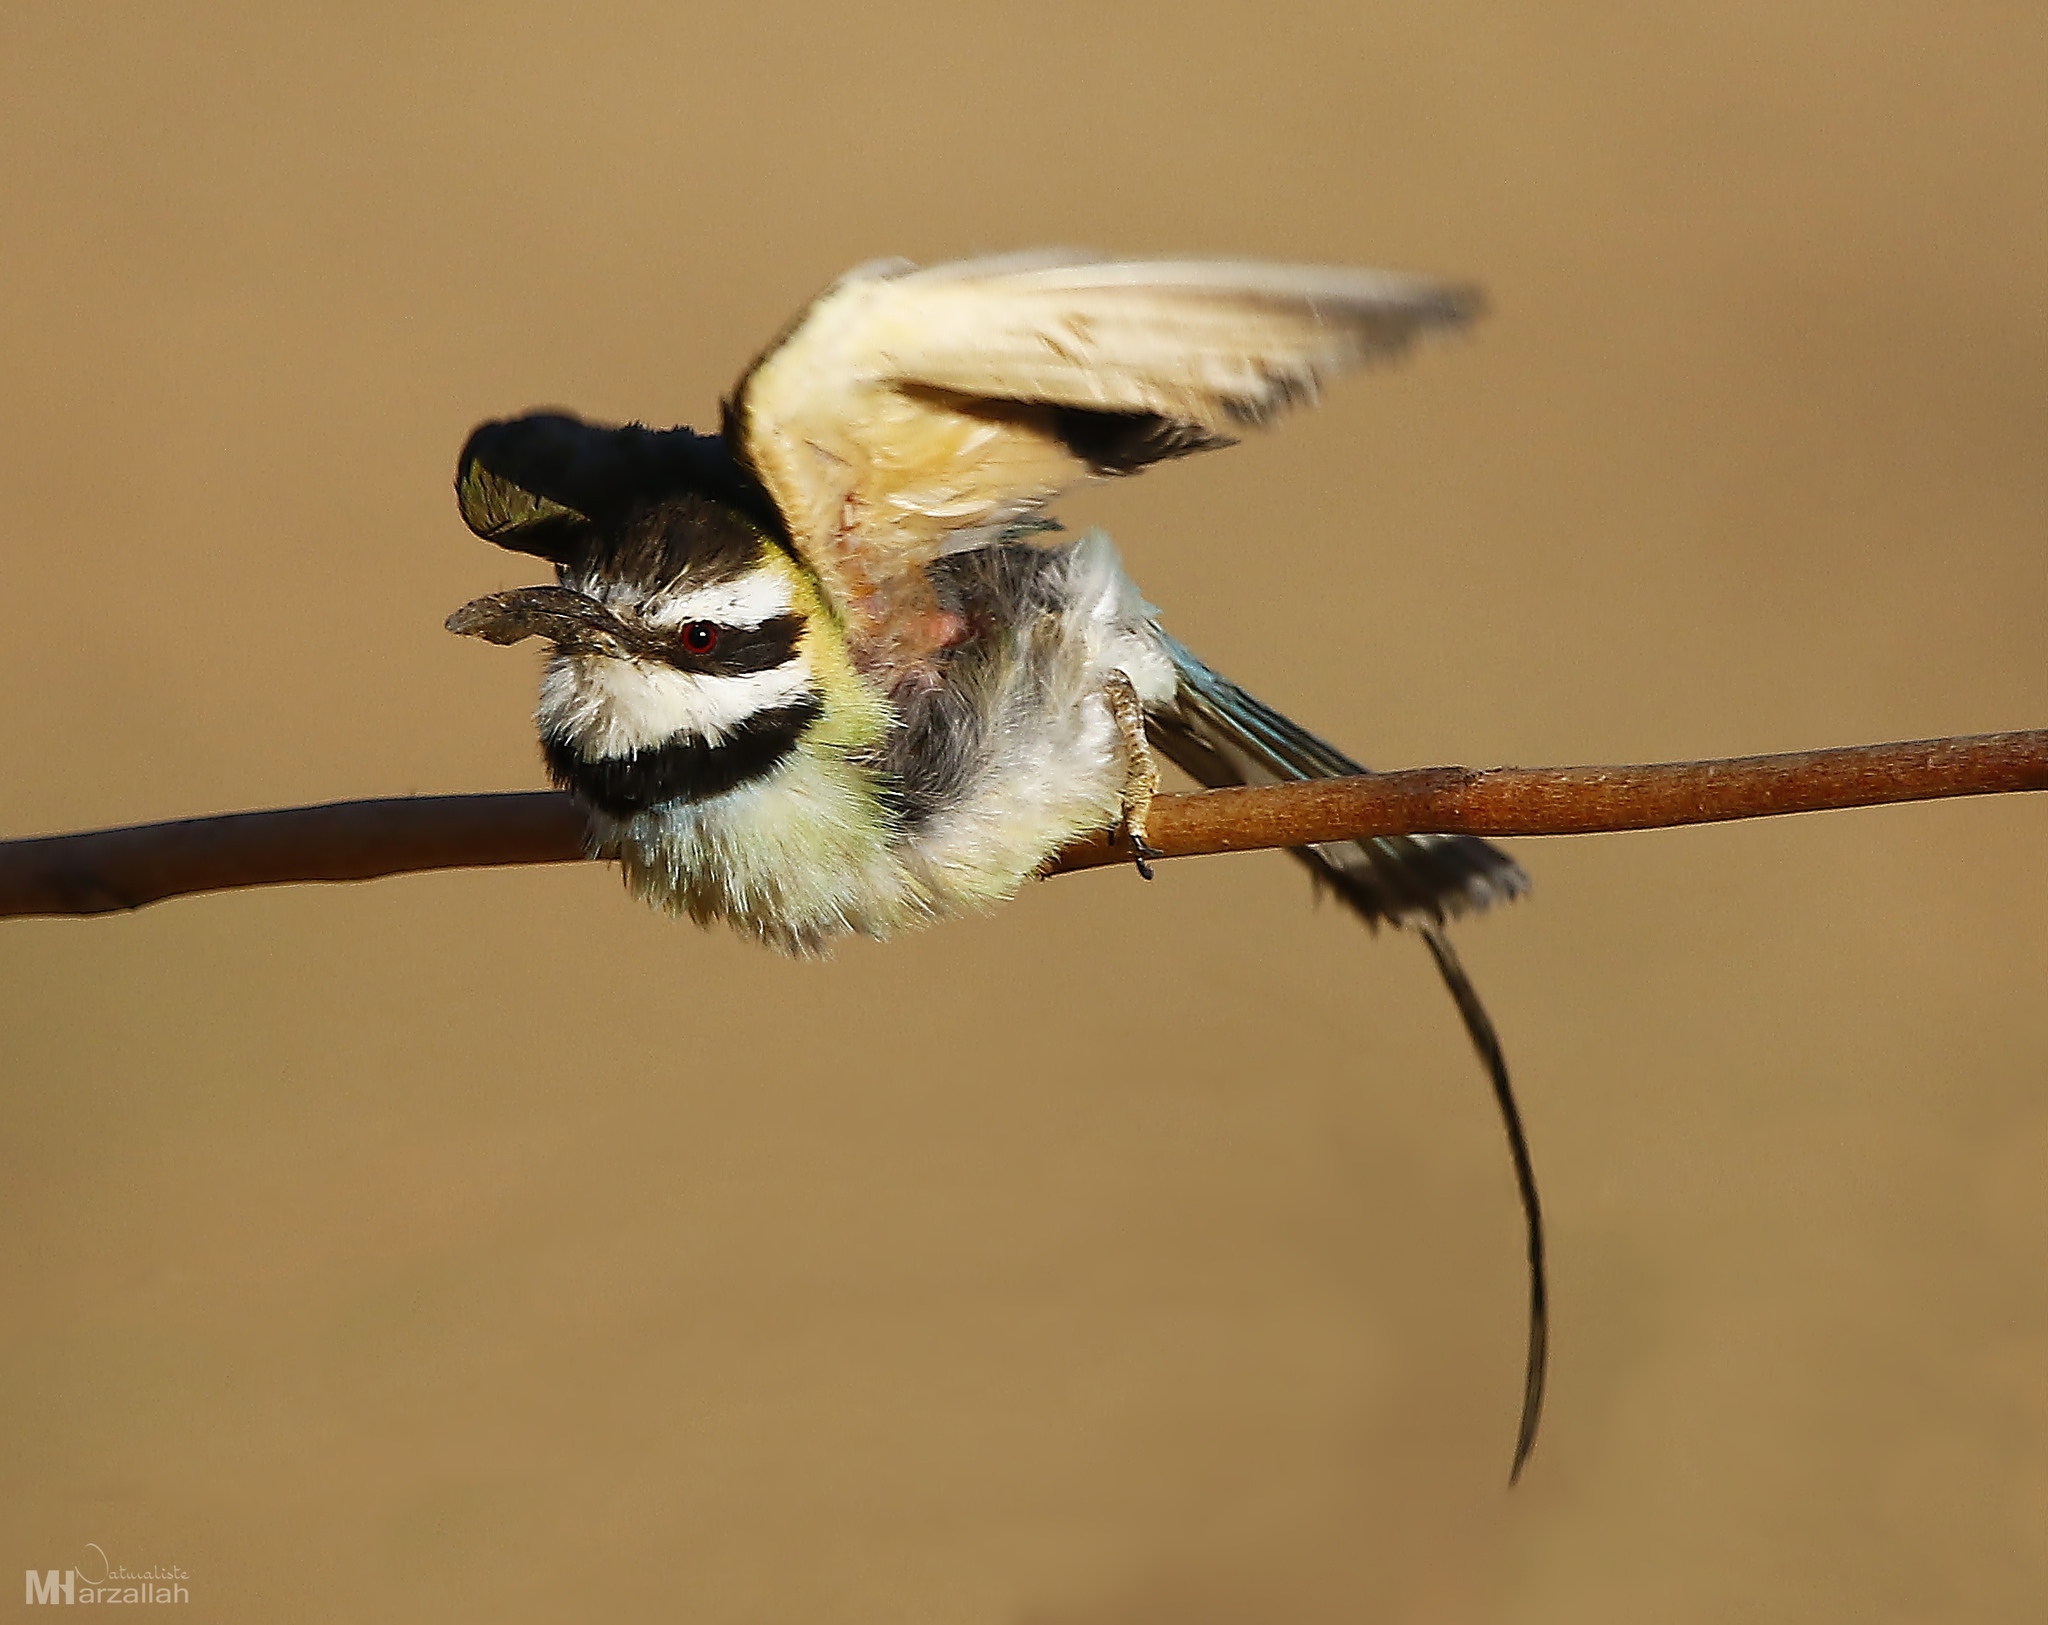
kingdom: Animalia
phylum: Chordata
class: Aves
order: Coraciiformes
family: Meropidae
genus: Merops
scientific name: Merops albicollis
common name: White-throated bee-eater
